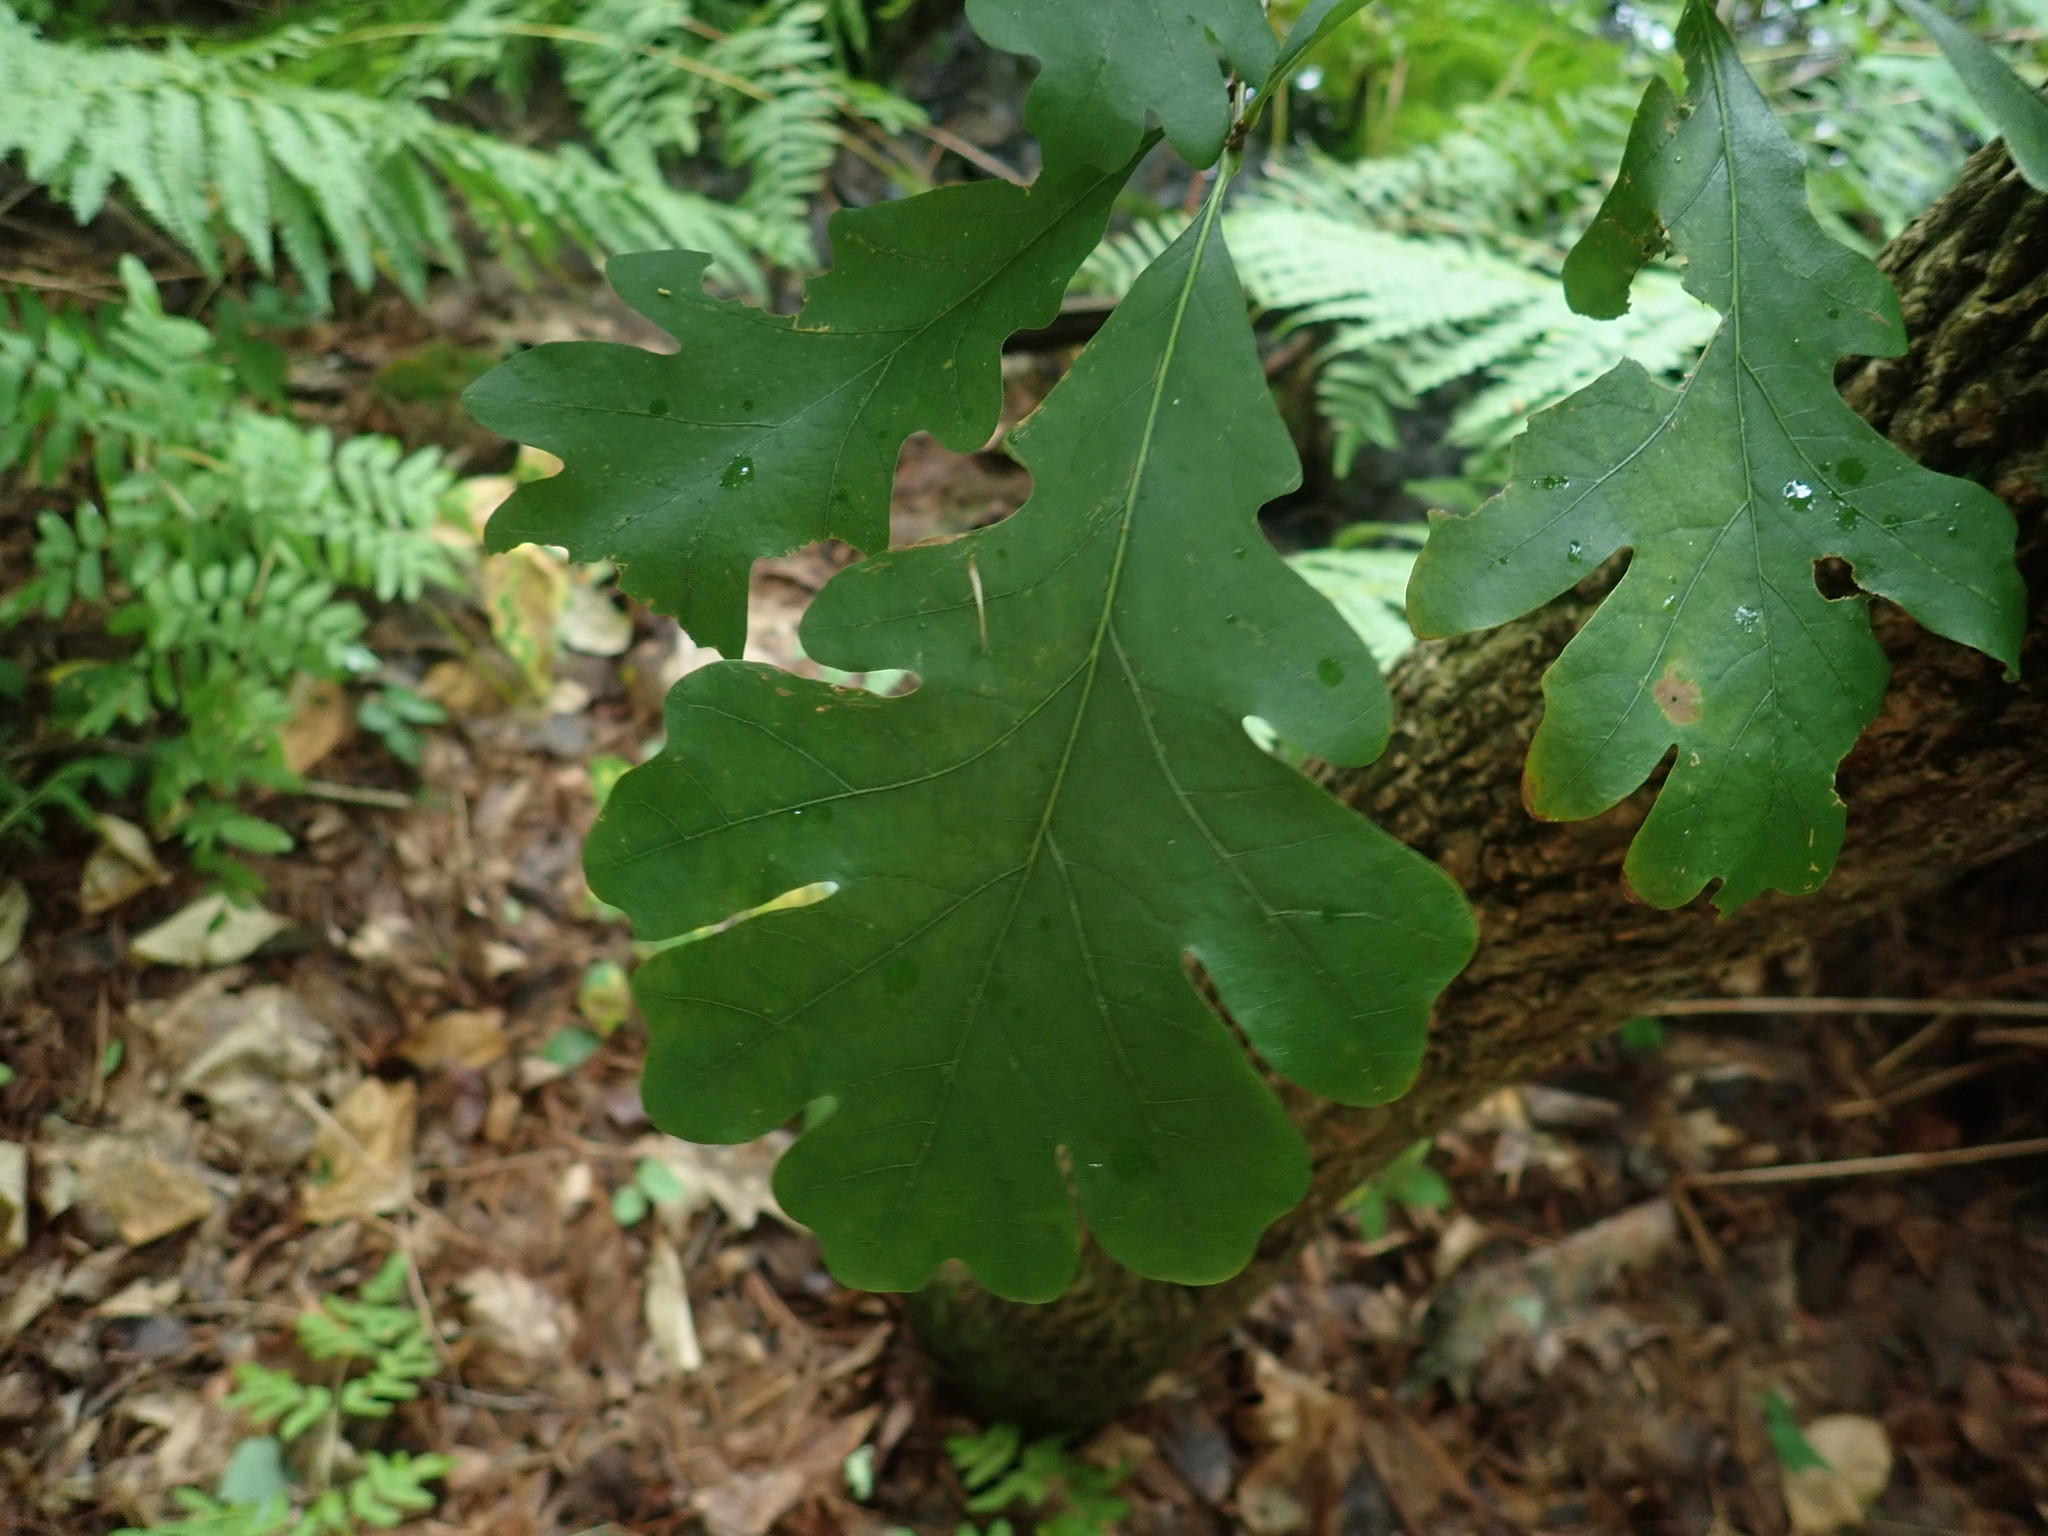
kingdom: Plantae
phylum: Tracheophyta
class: Magnoliopsida
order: Fagales
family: Fagaceae
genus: Quercus
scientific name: Quercus alba
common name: White oak
